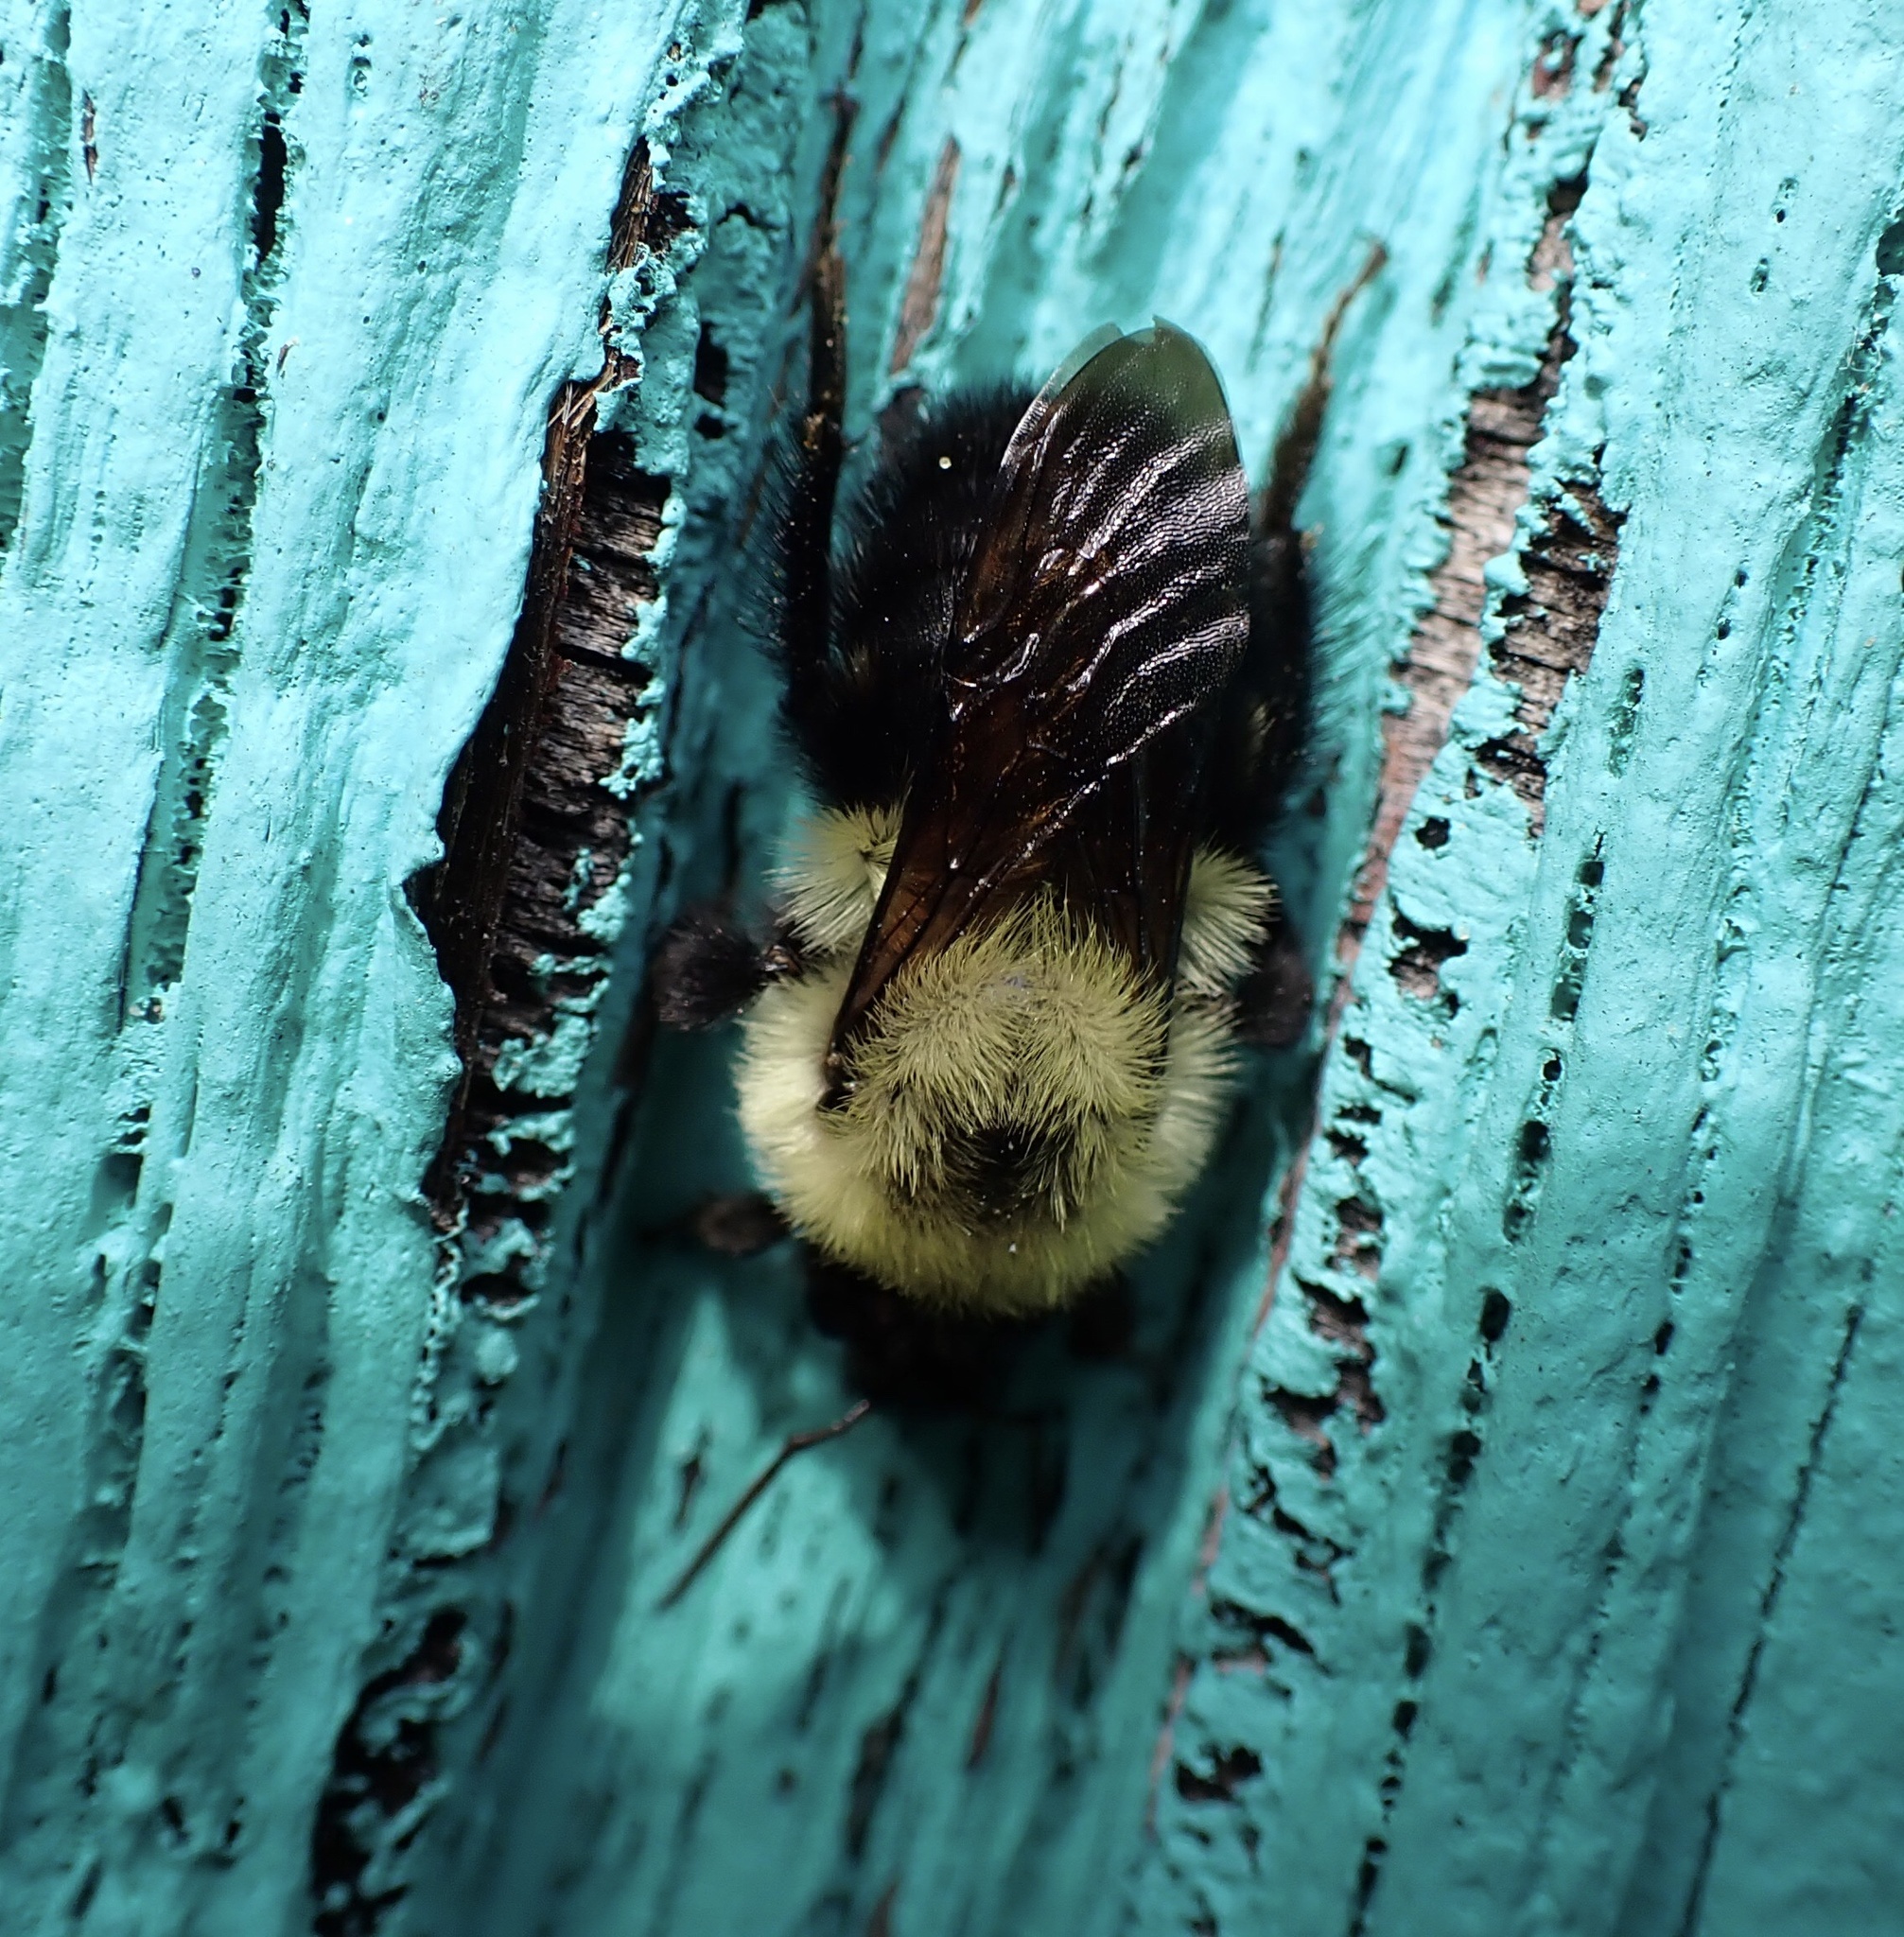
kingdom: Animalia
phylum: Arthropoda
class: Insecta
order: Hymenoptera
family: Apidae
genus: Bombus
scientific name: Bombus bimaculatus
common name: Two-spotted bumble bee
